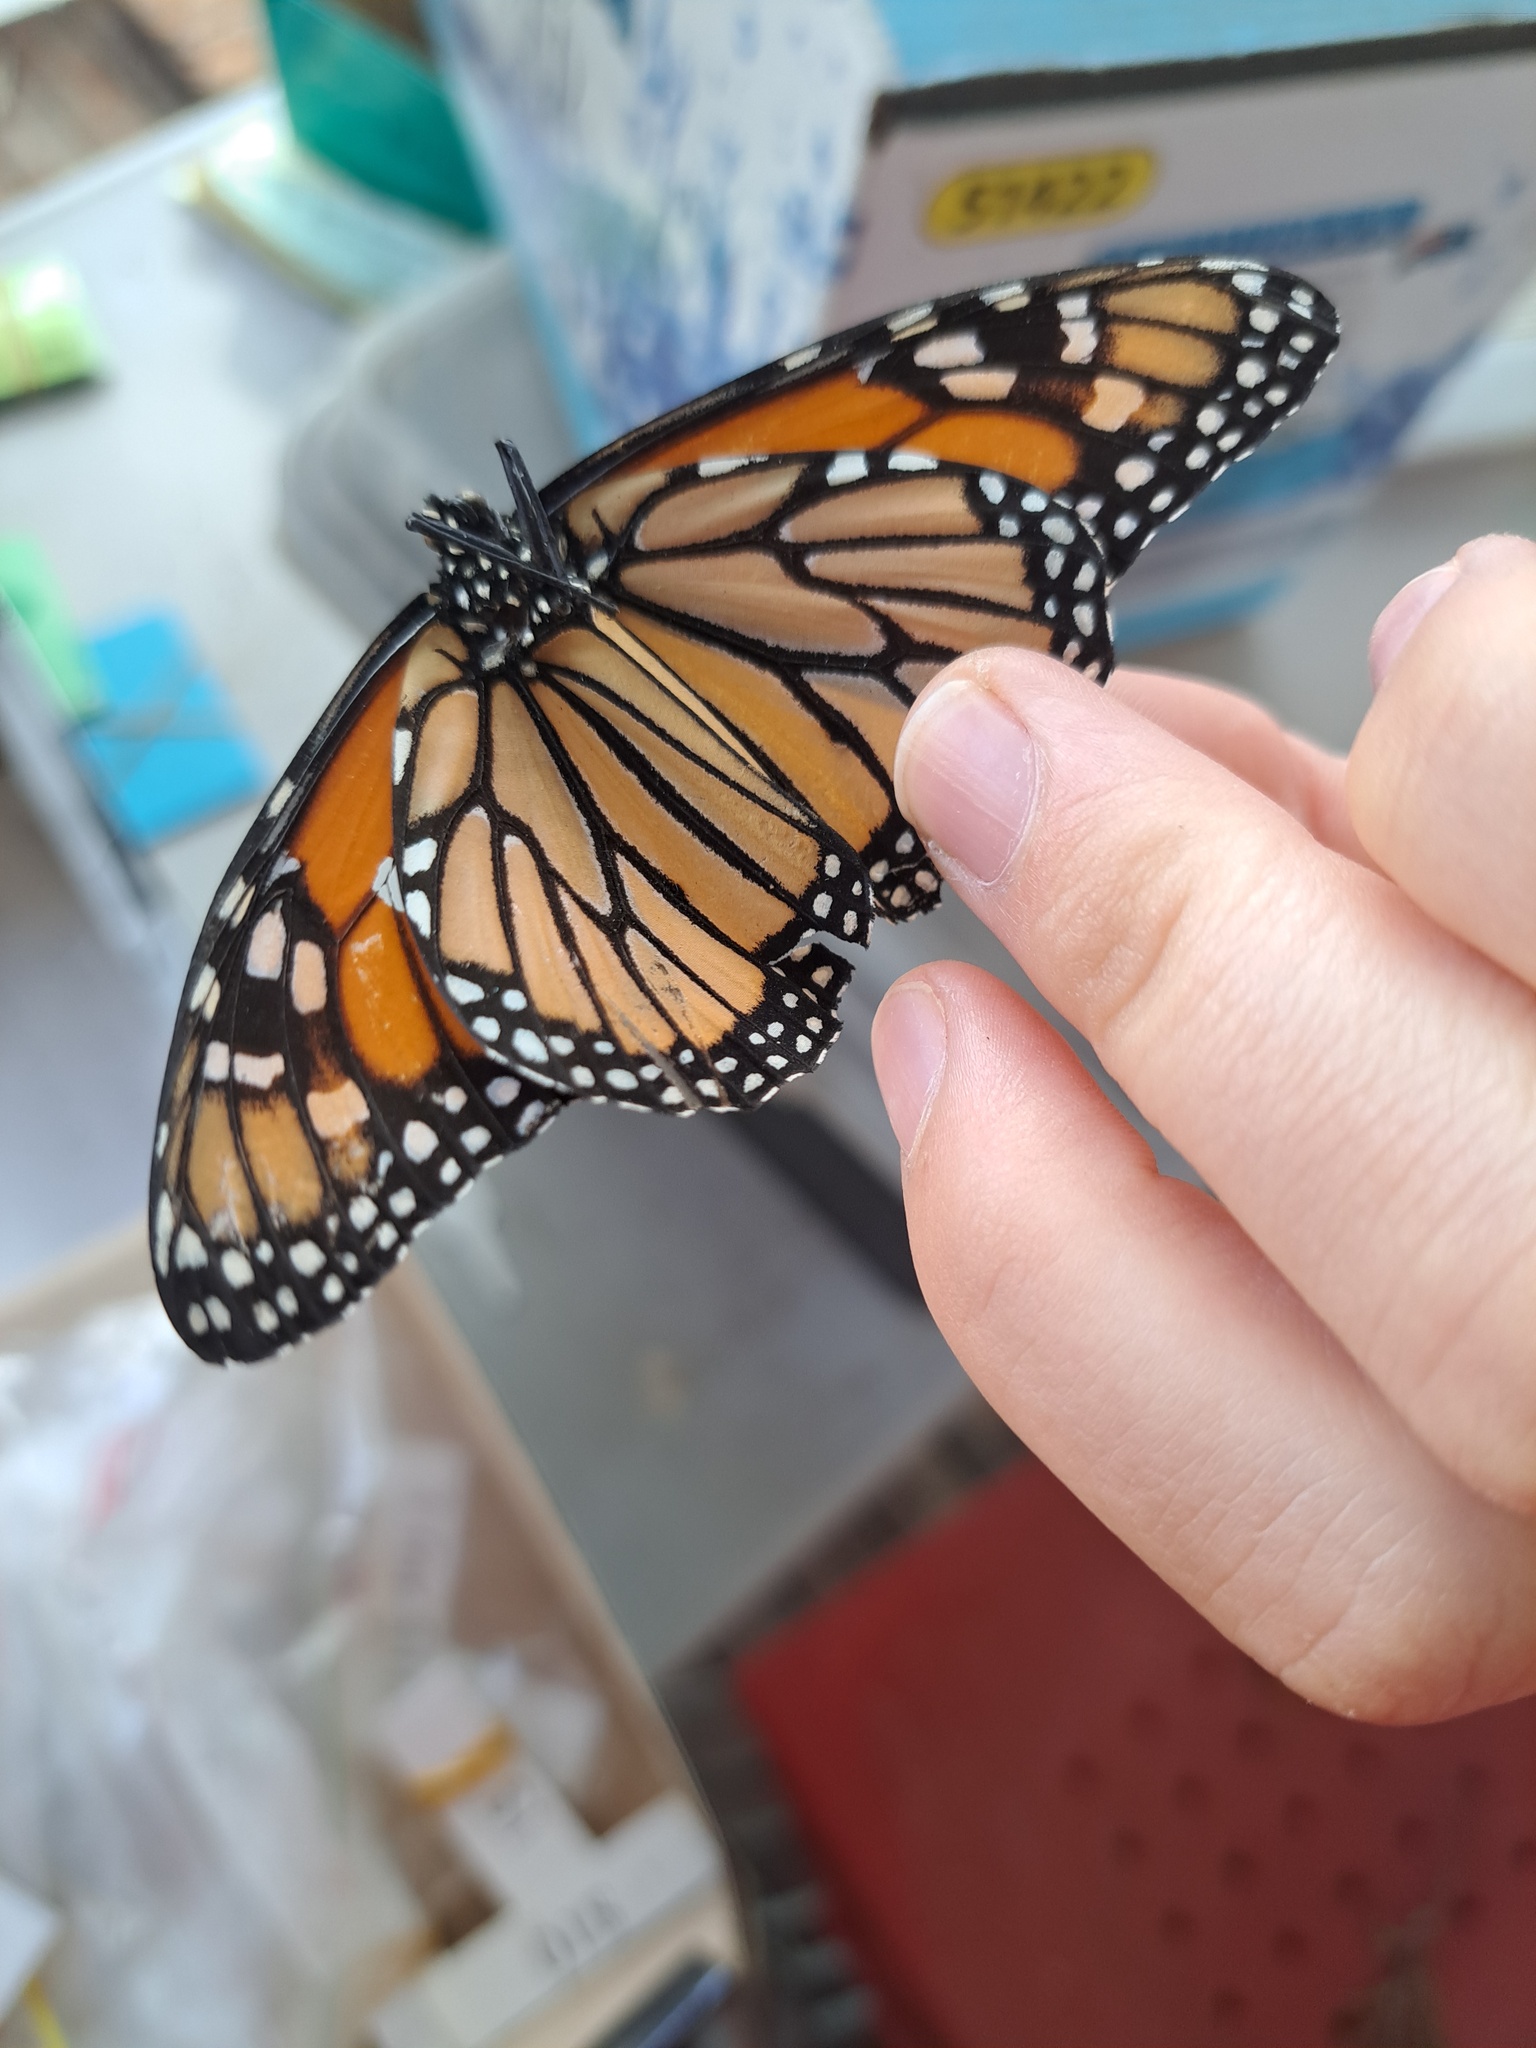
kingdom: Animalia
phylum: Arthropoda
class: Insecta
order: Lepidoptera
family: Nymphalidae
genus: Danaus
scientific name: Danaus plexippus
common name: Monarch
